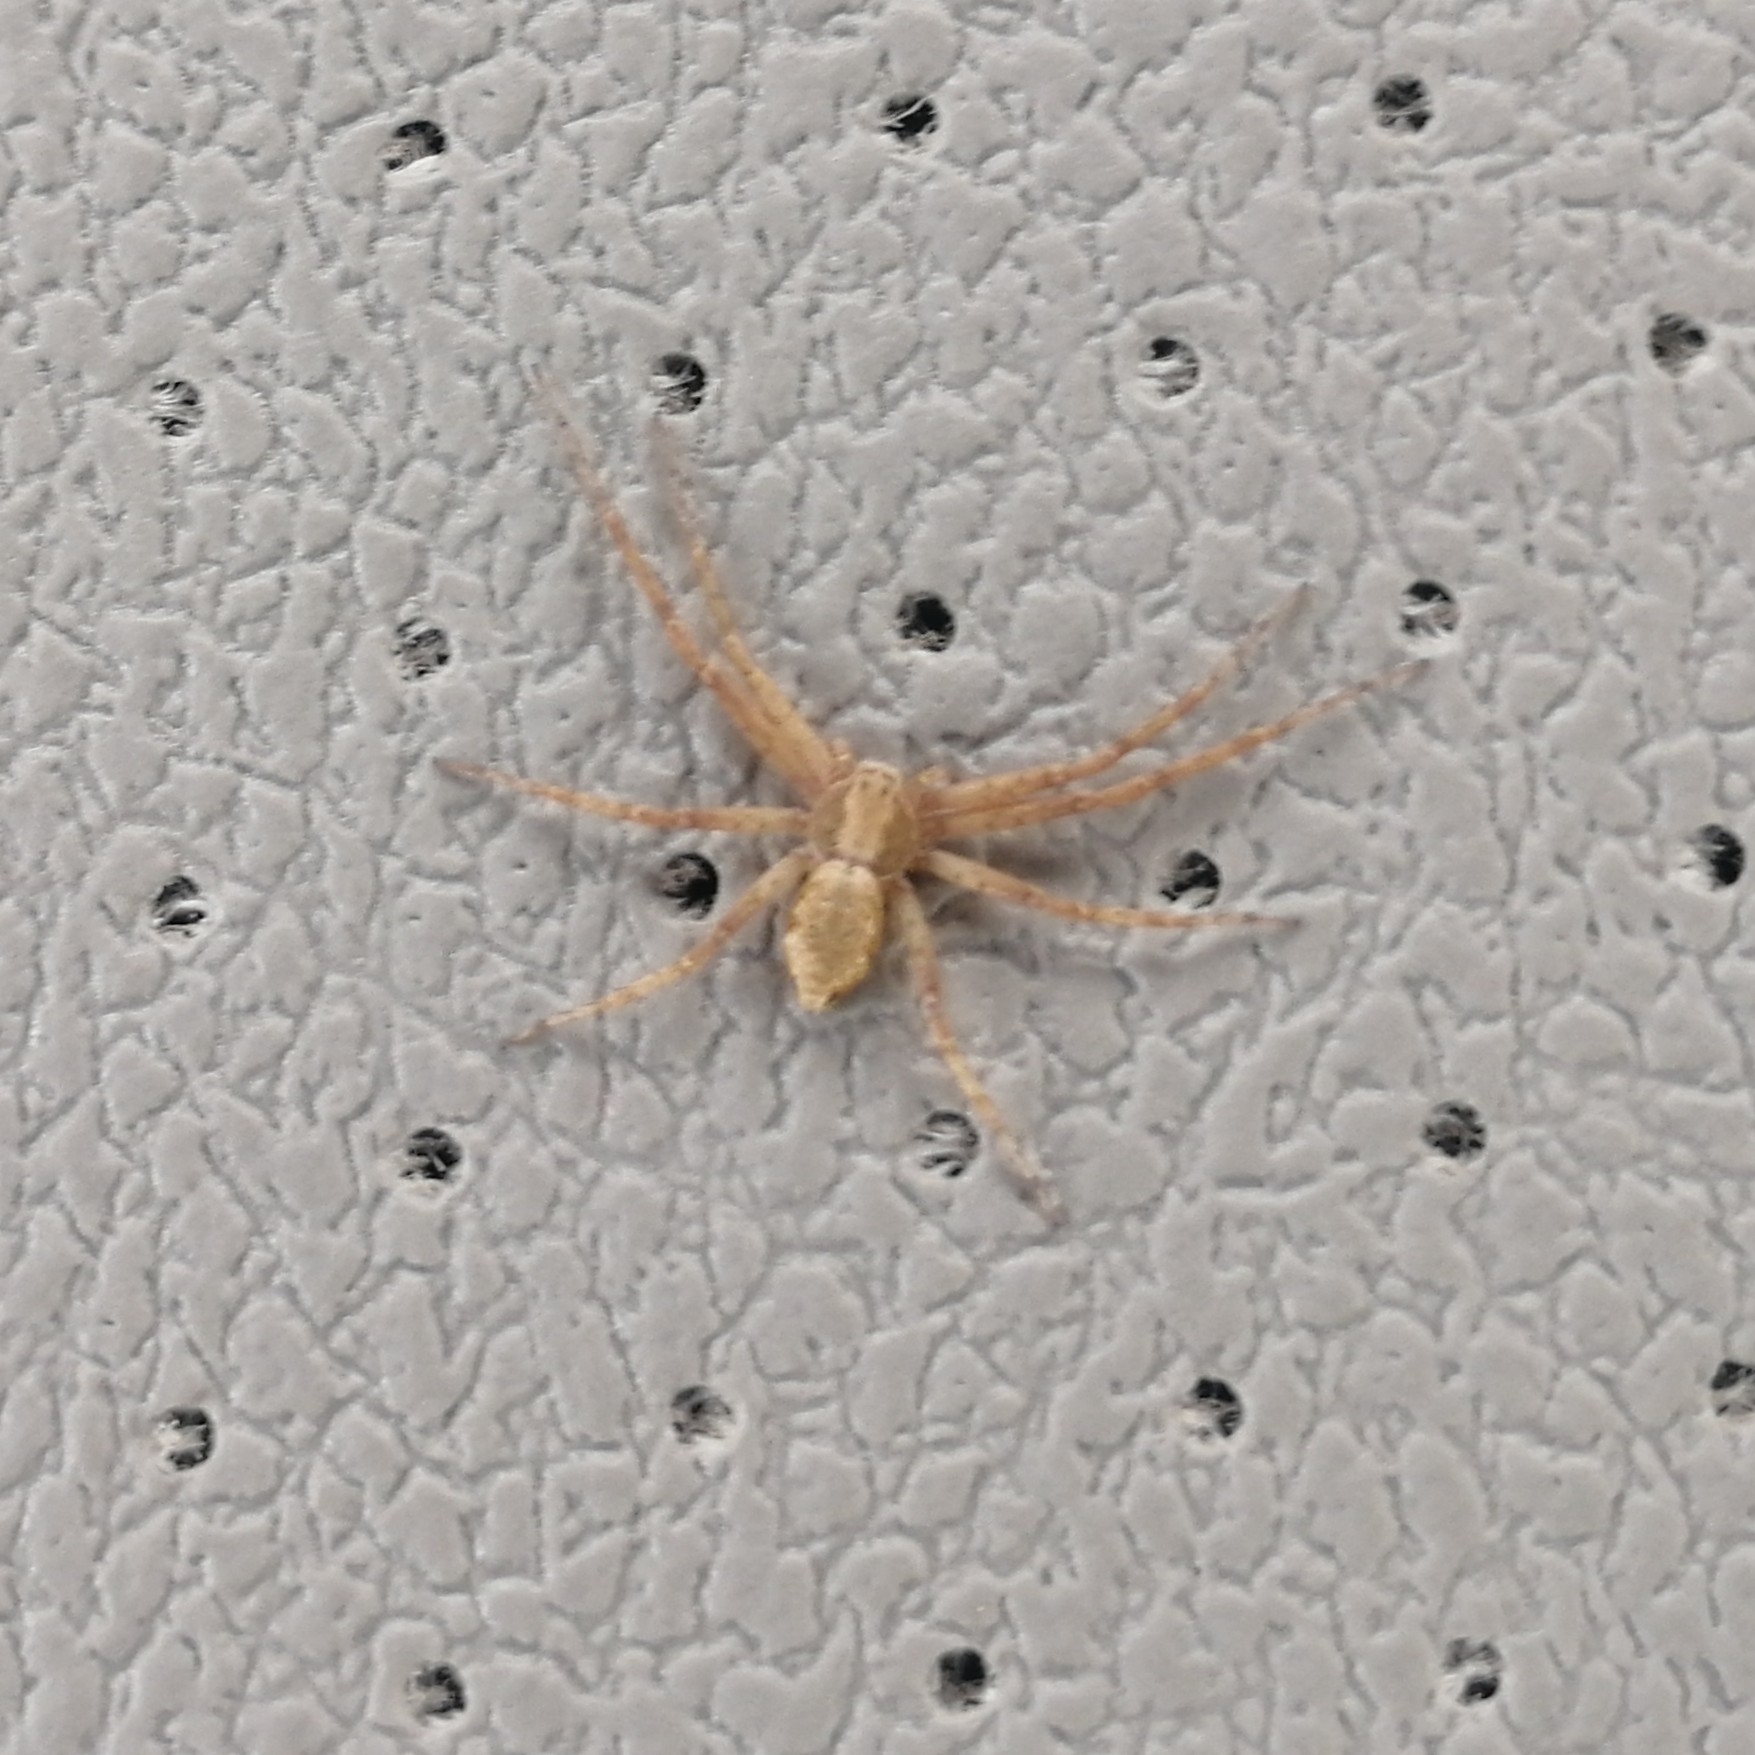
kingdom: Animalia
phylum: Arthropoda
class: Arachnida
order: Araneae
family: Philodromidae
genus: Philodromus
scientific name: Philodromus
